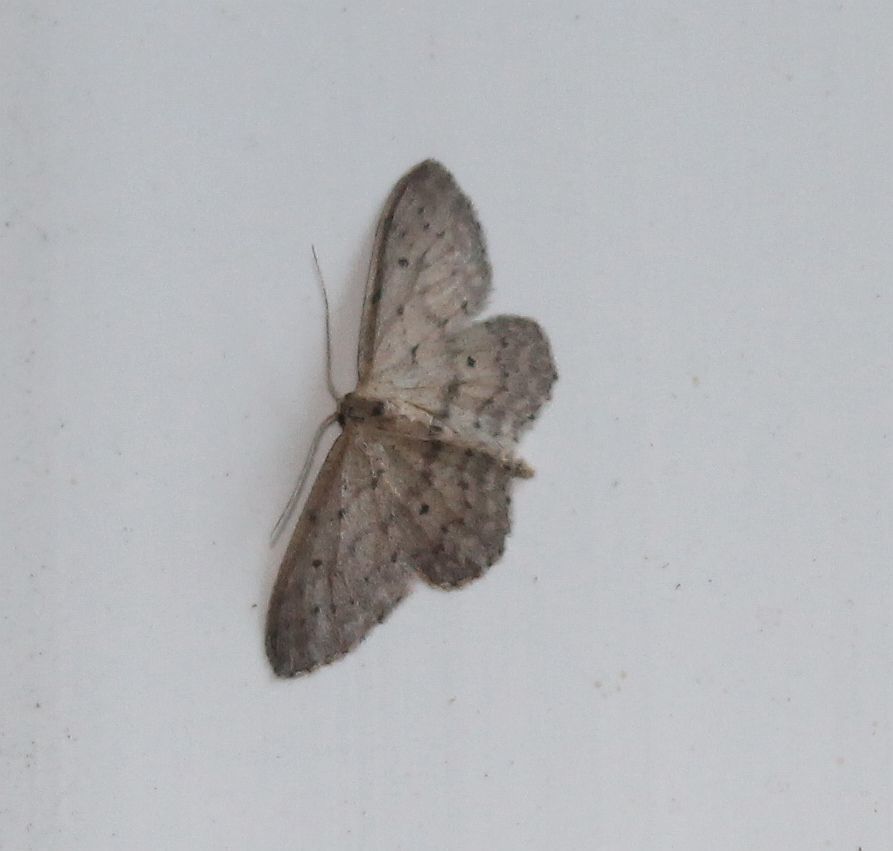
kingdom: Animalia
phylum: Arthropoda
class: Insecta
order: Lepidoptera
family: Geometridae
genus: Idaea
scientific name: Idaea seriata
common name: Small dusty wave
